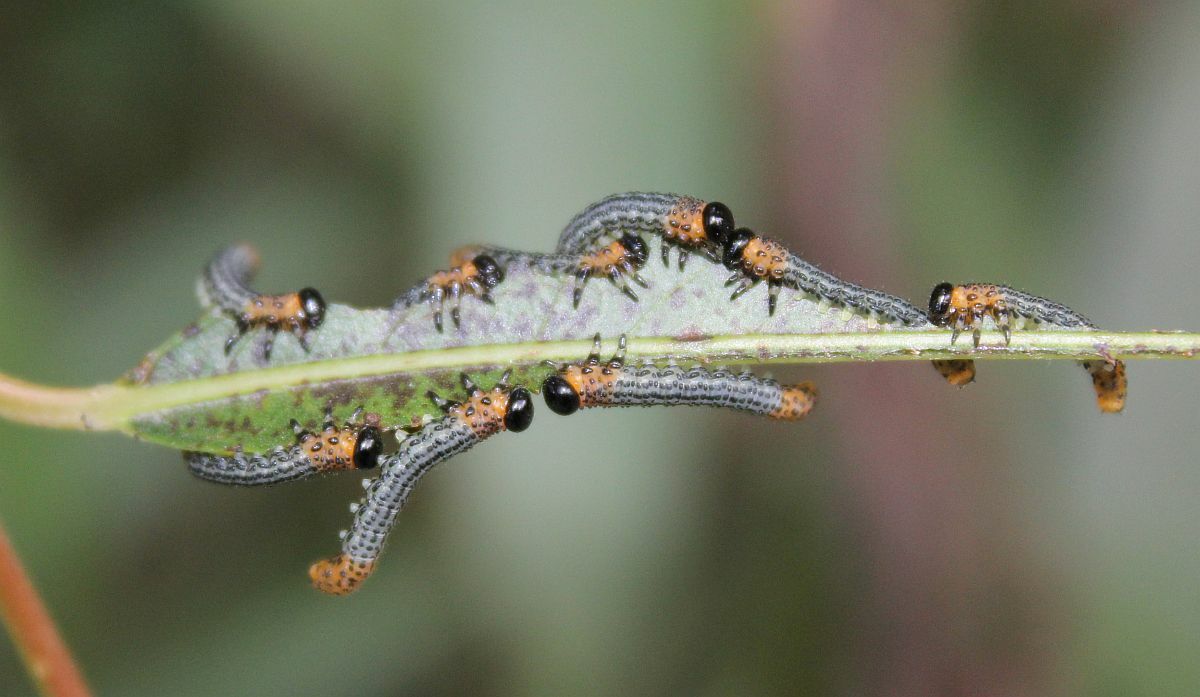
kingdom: Animalia
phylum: Arthropoda
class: Insecta
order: Hymenoptera
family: Tenthredinidae
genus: Nematus
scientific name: Nematus salicis
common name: Willow sawfly
